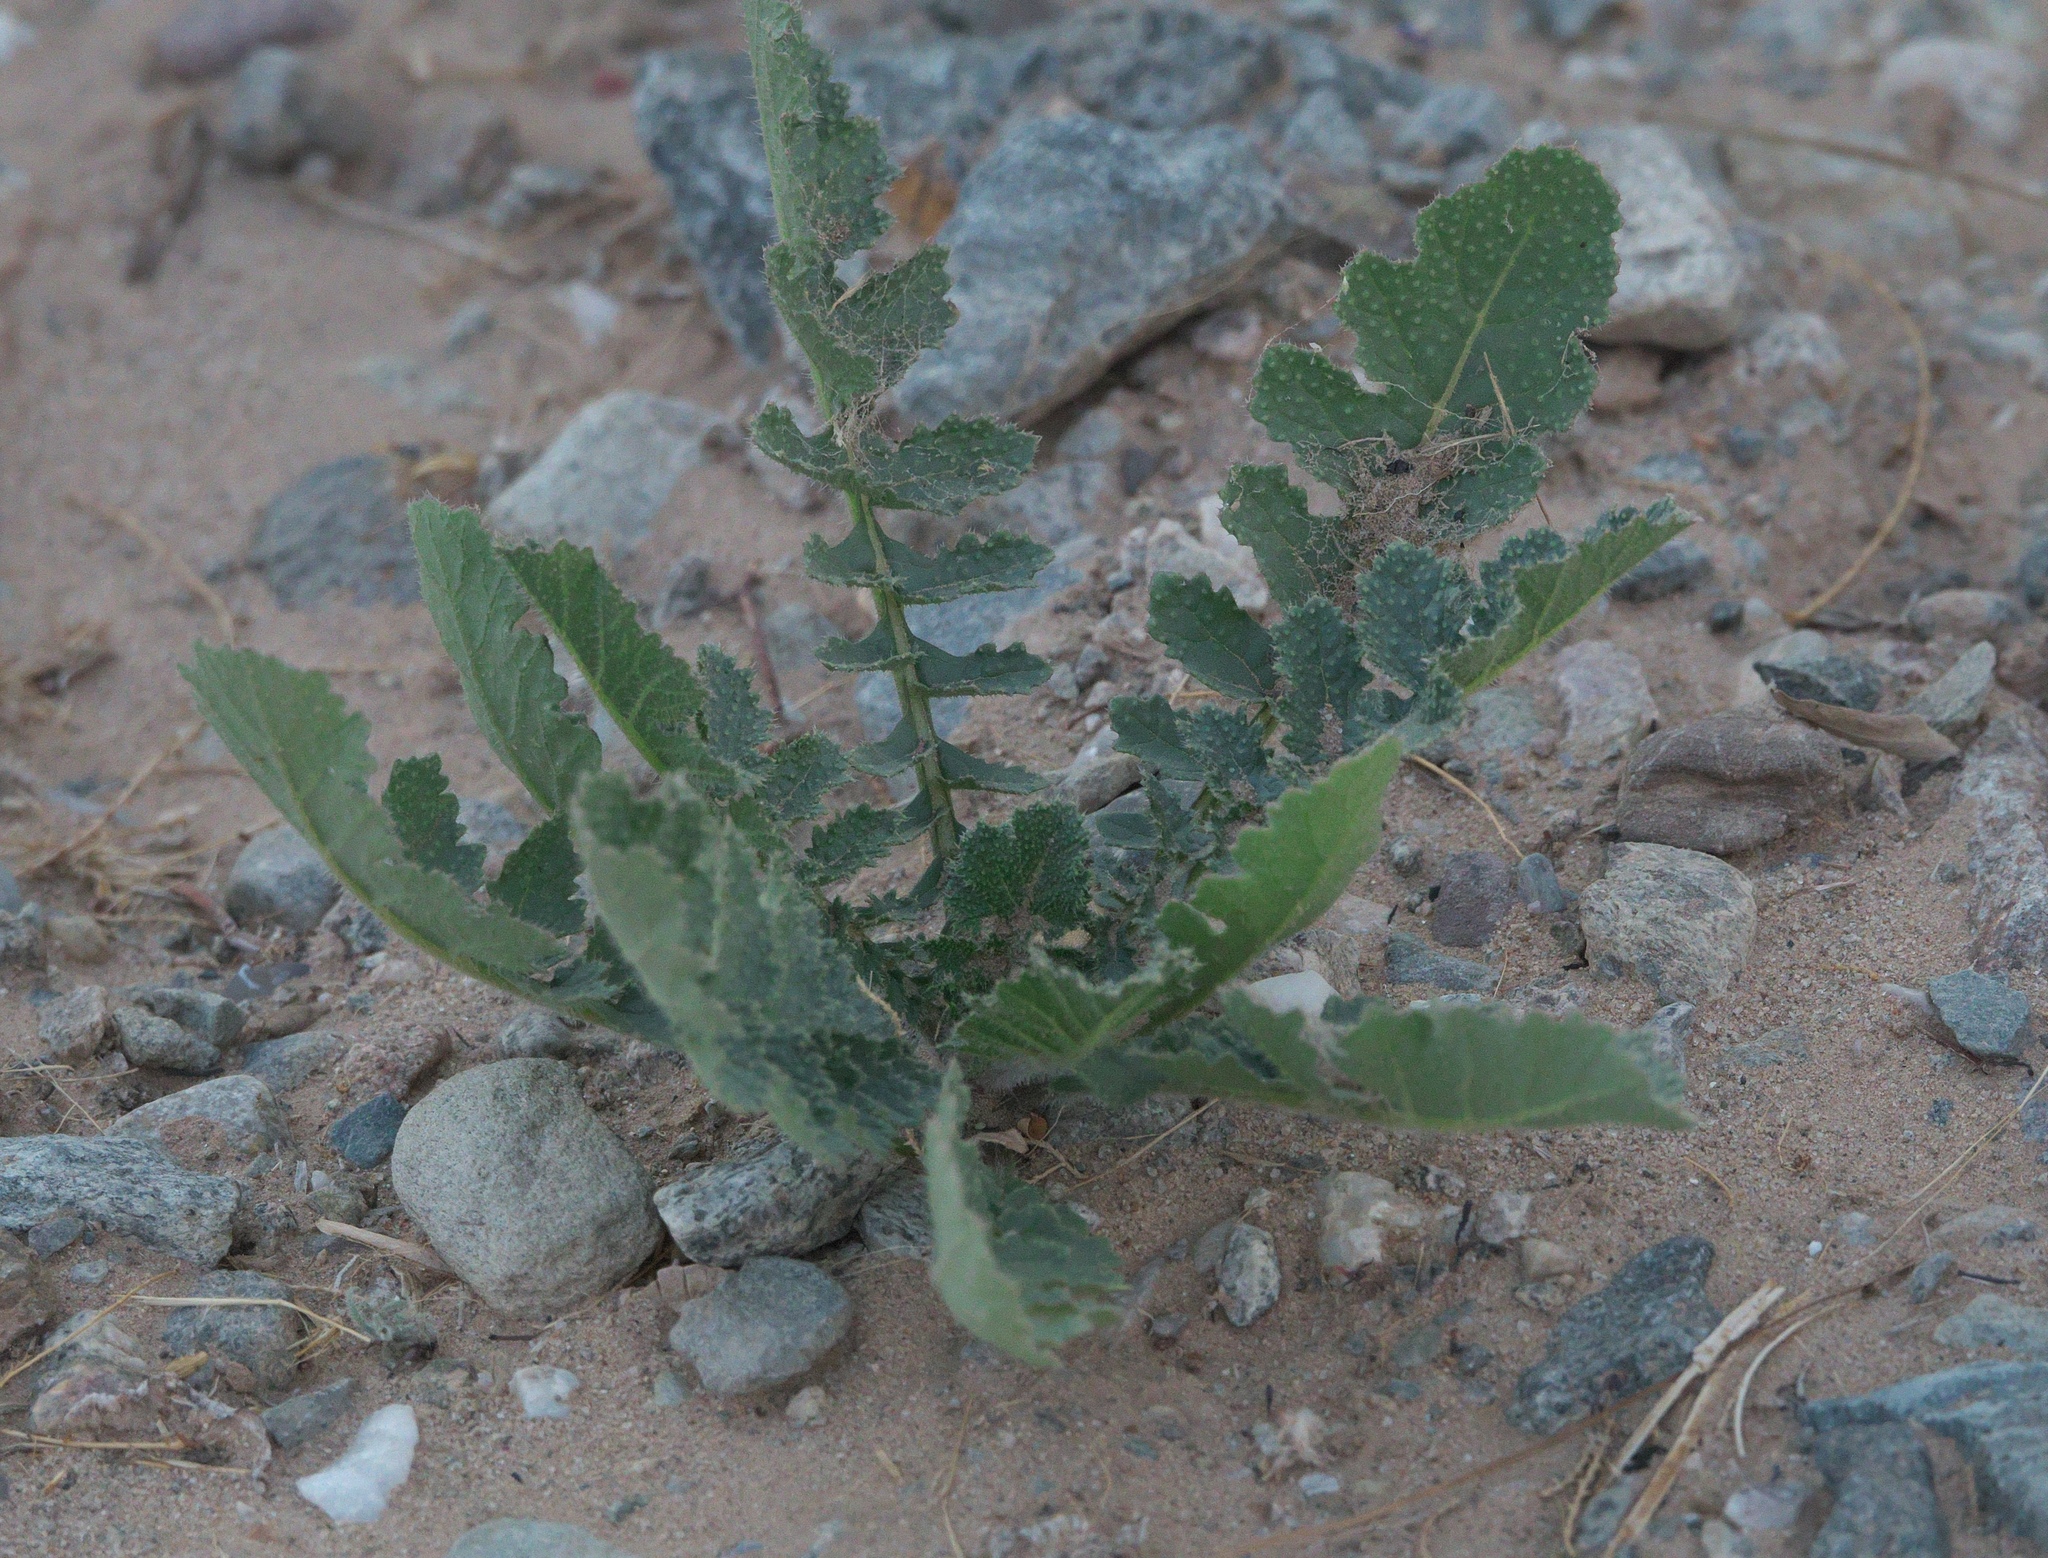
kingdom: Plantae
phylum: Tracheophyta
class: Magnoliopsida
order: Brassicales
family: Brassicaceae
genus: Brassica
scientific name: Brassica tournefortii
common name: Pale cabbage
